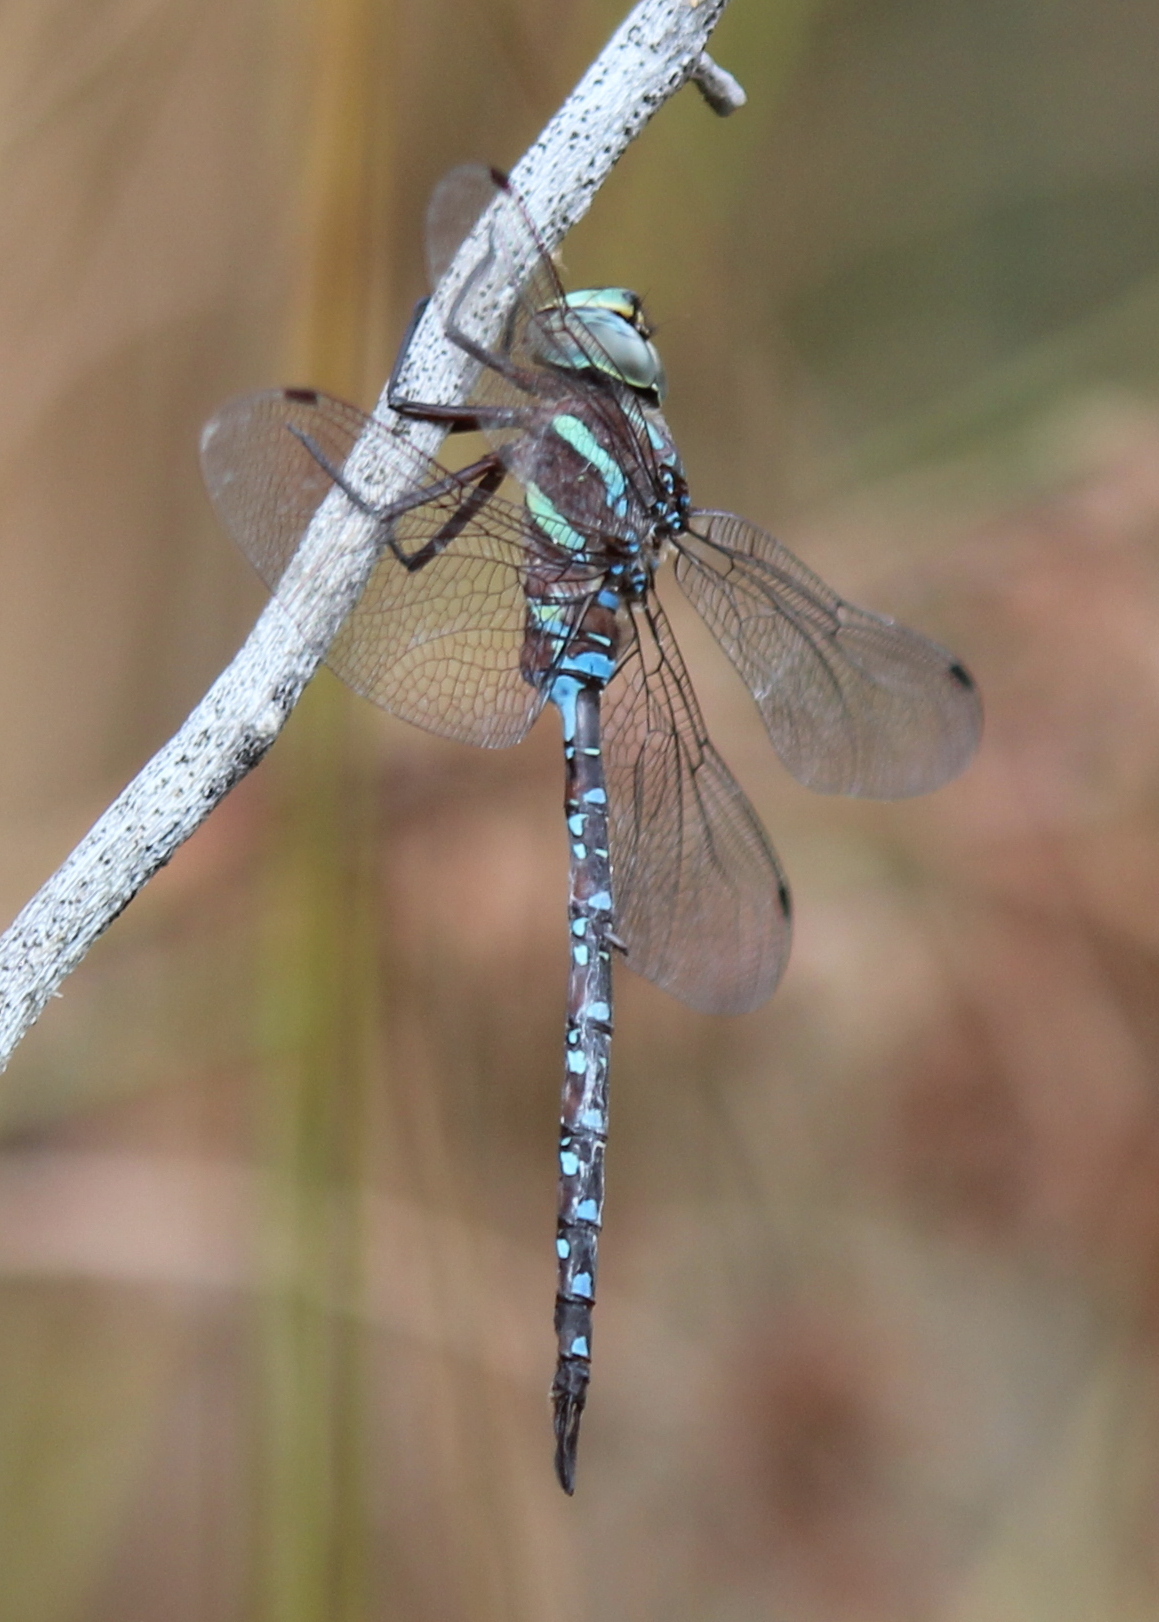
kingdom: Animalia
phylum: Arthropoda
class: Insecta
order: Odonata
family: Aeshnidae
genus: Aeshna
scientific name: Aeshna tuberculifera
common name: Aeschne à tubercules
